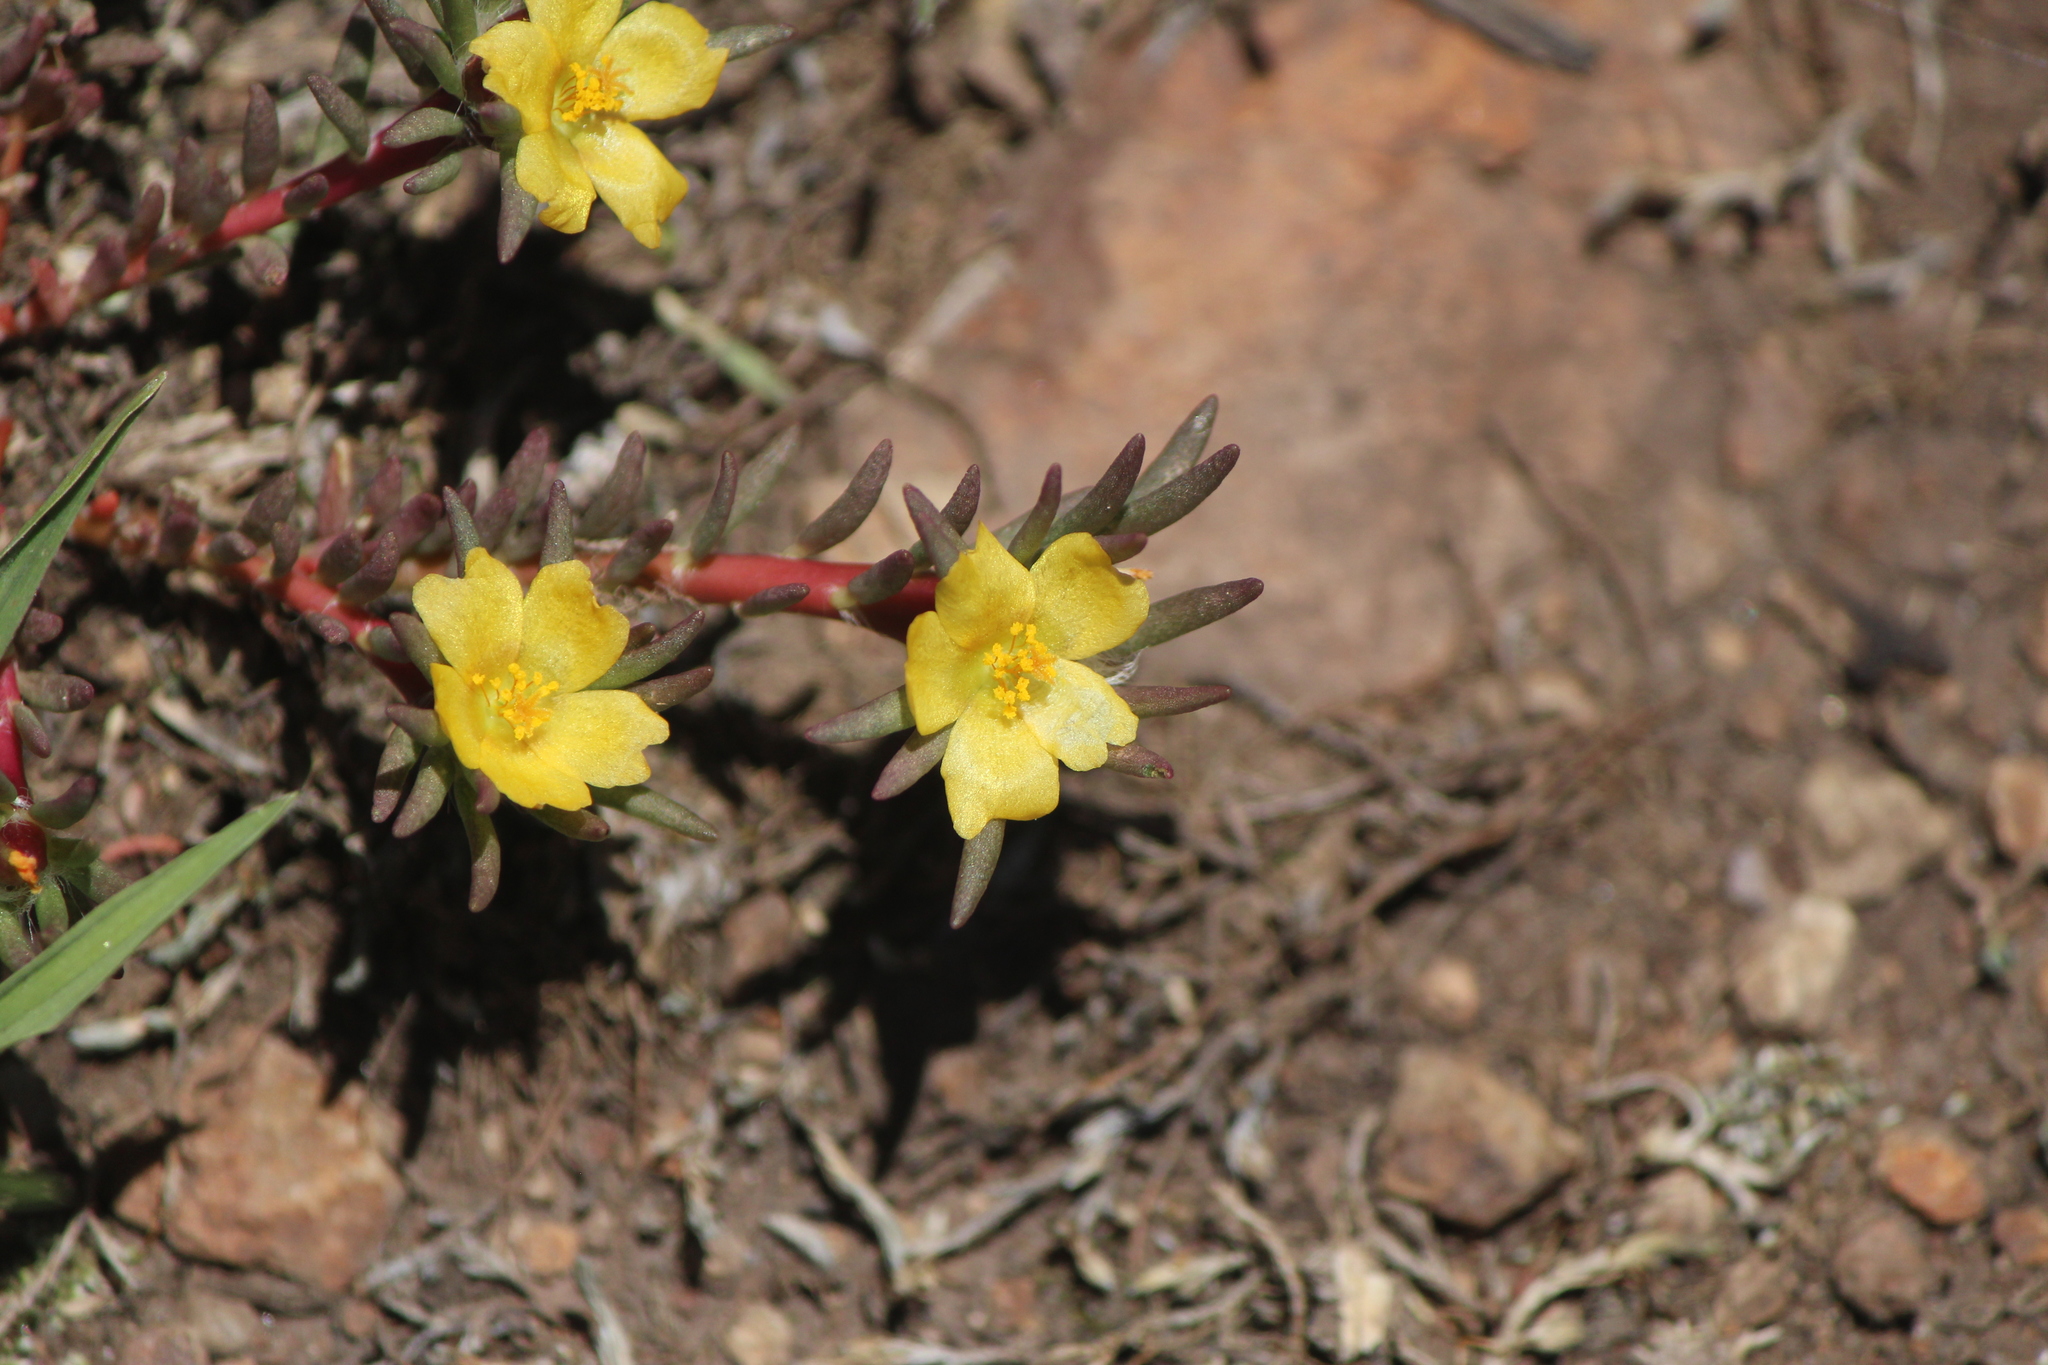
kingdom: Plantae
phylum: Tracheophyta
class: Magnoliopsida
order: Caryophyllales
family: Portulacaceae
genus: Portulaca
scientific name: Portulaca halimoides
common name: Silk cotton purslane
